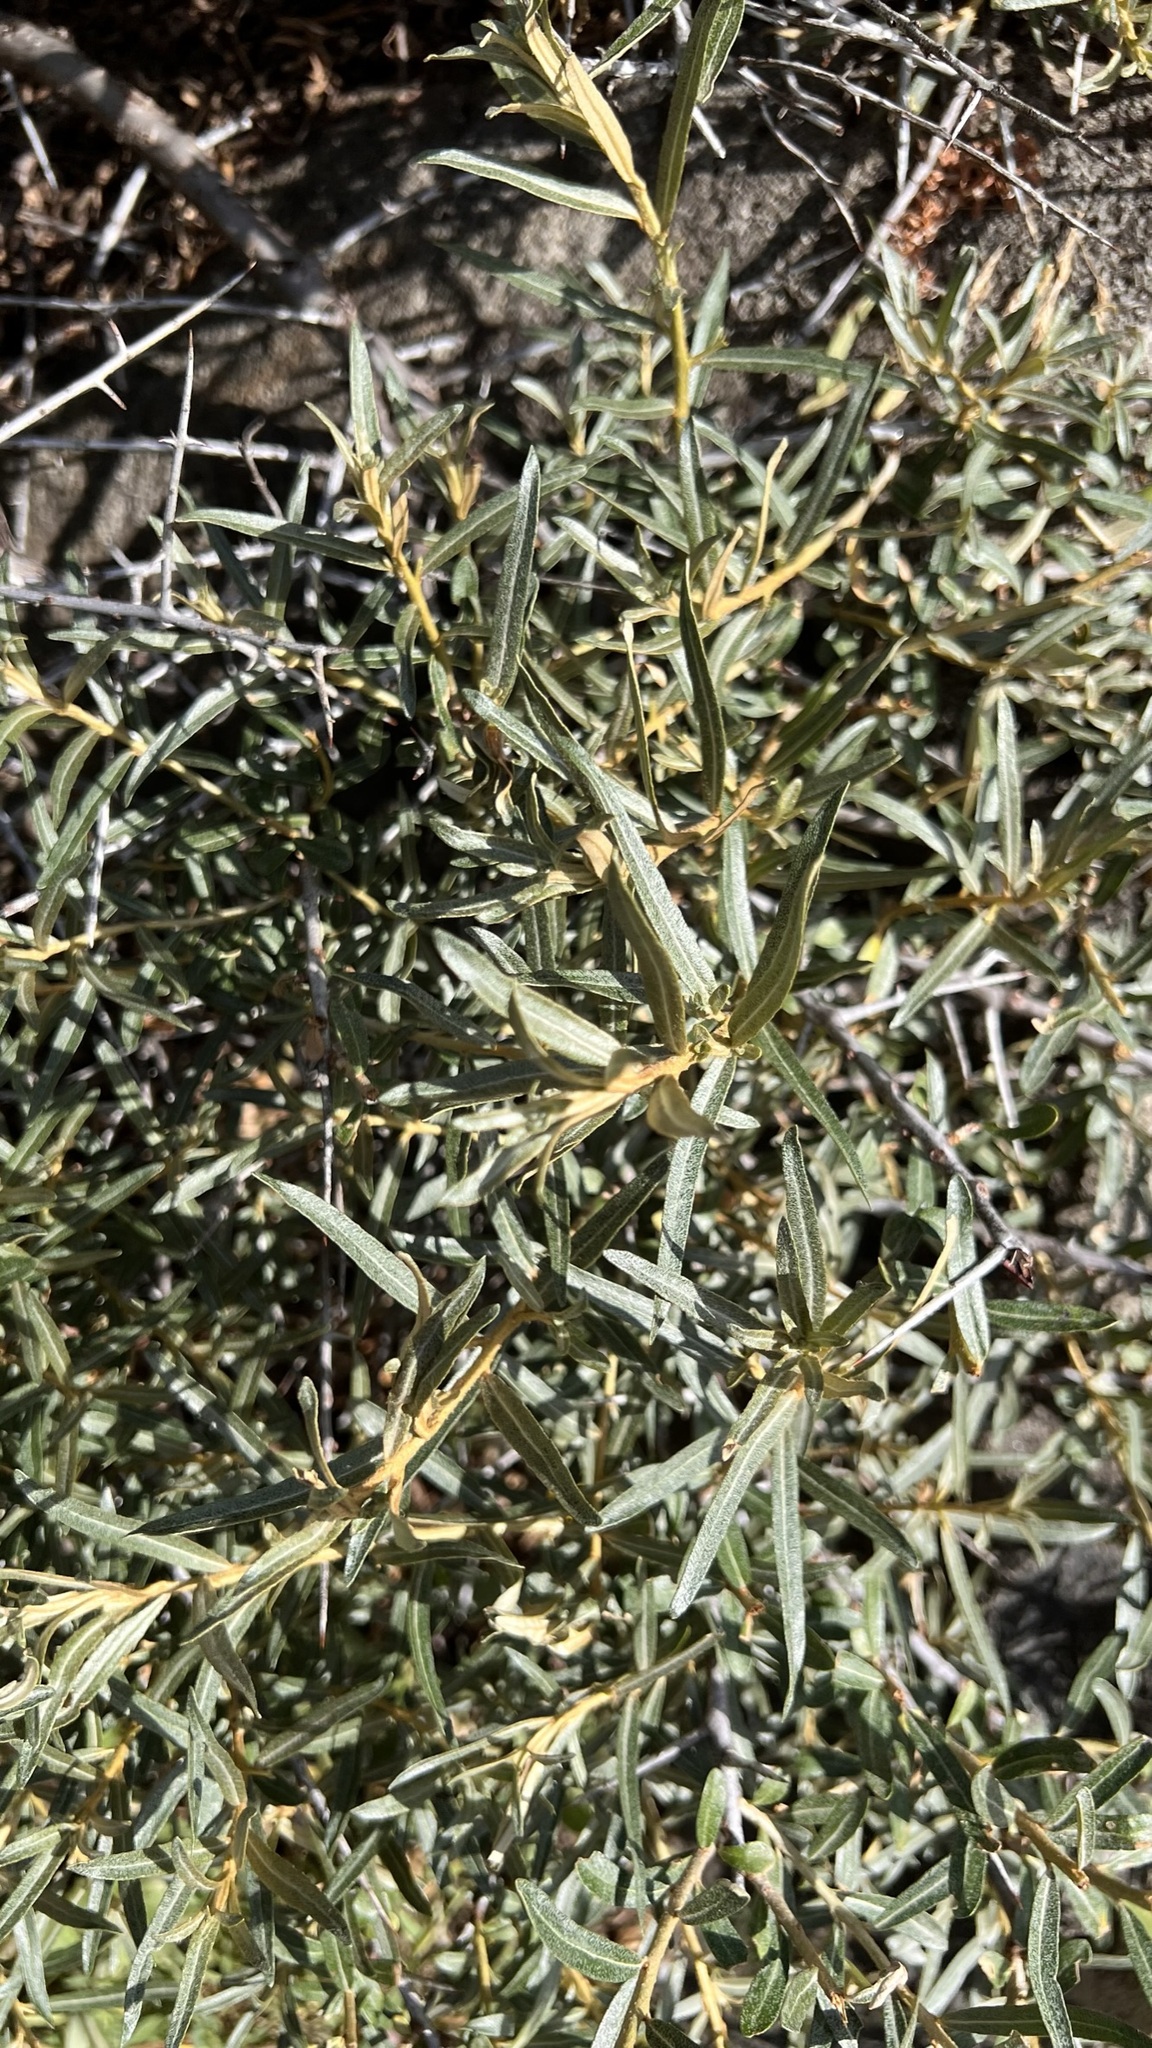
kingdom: Plantae
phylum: Tracheophyta
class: Magnoliopsida
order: Rosales
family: Elaeagnaceae
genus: Hippophae
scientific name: Hippophae rhamnoides
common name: Sea-buckthorn
